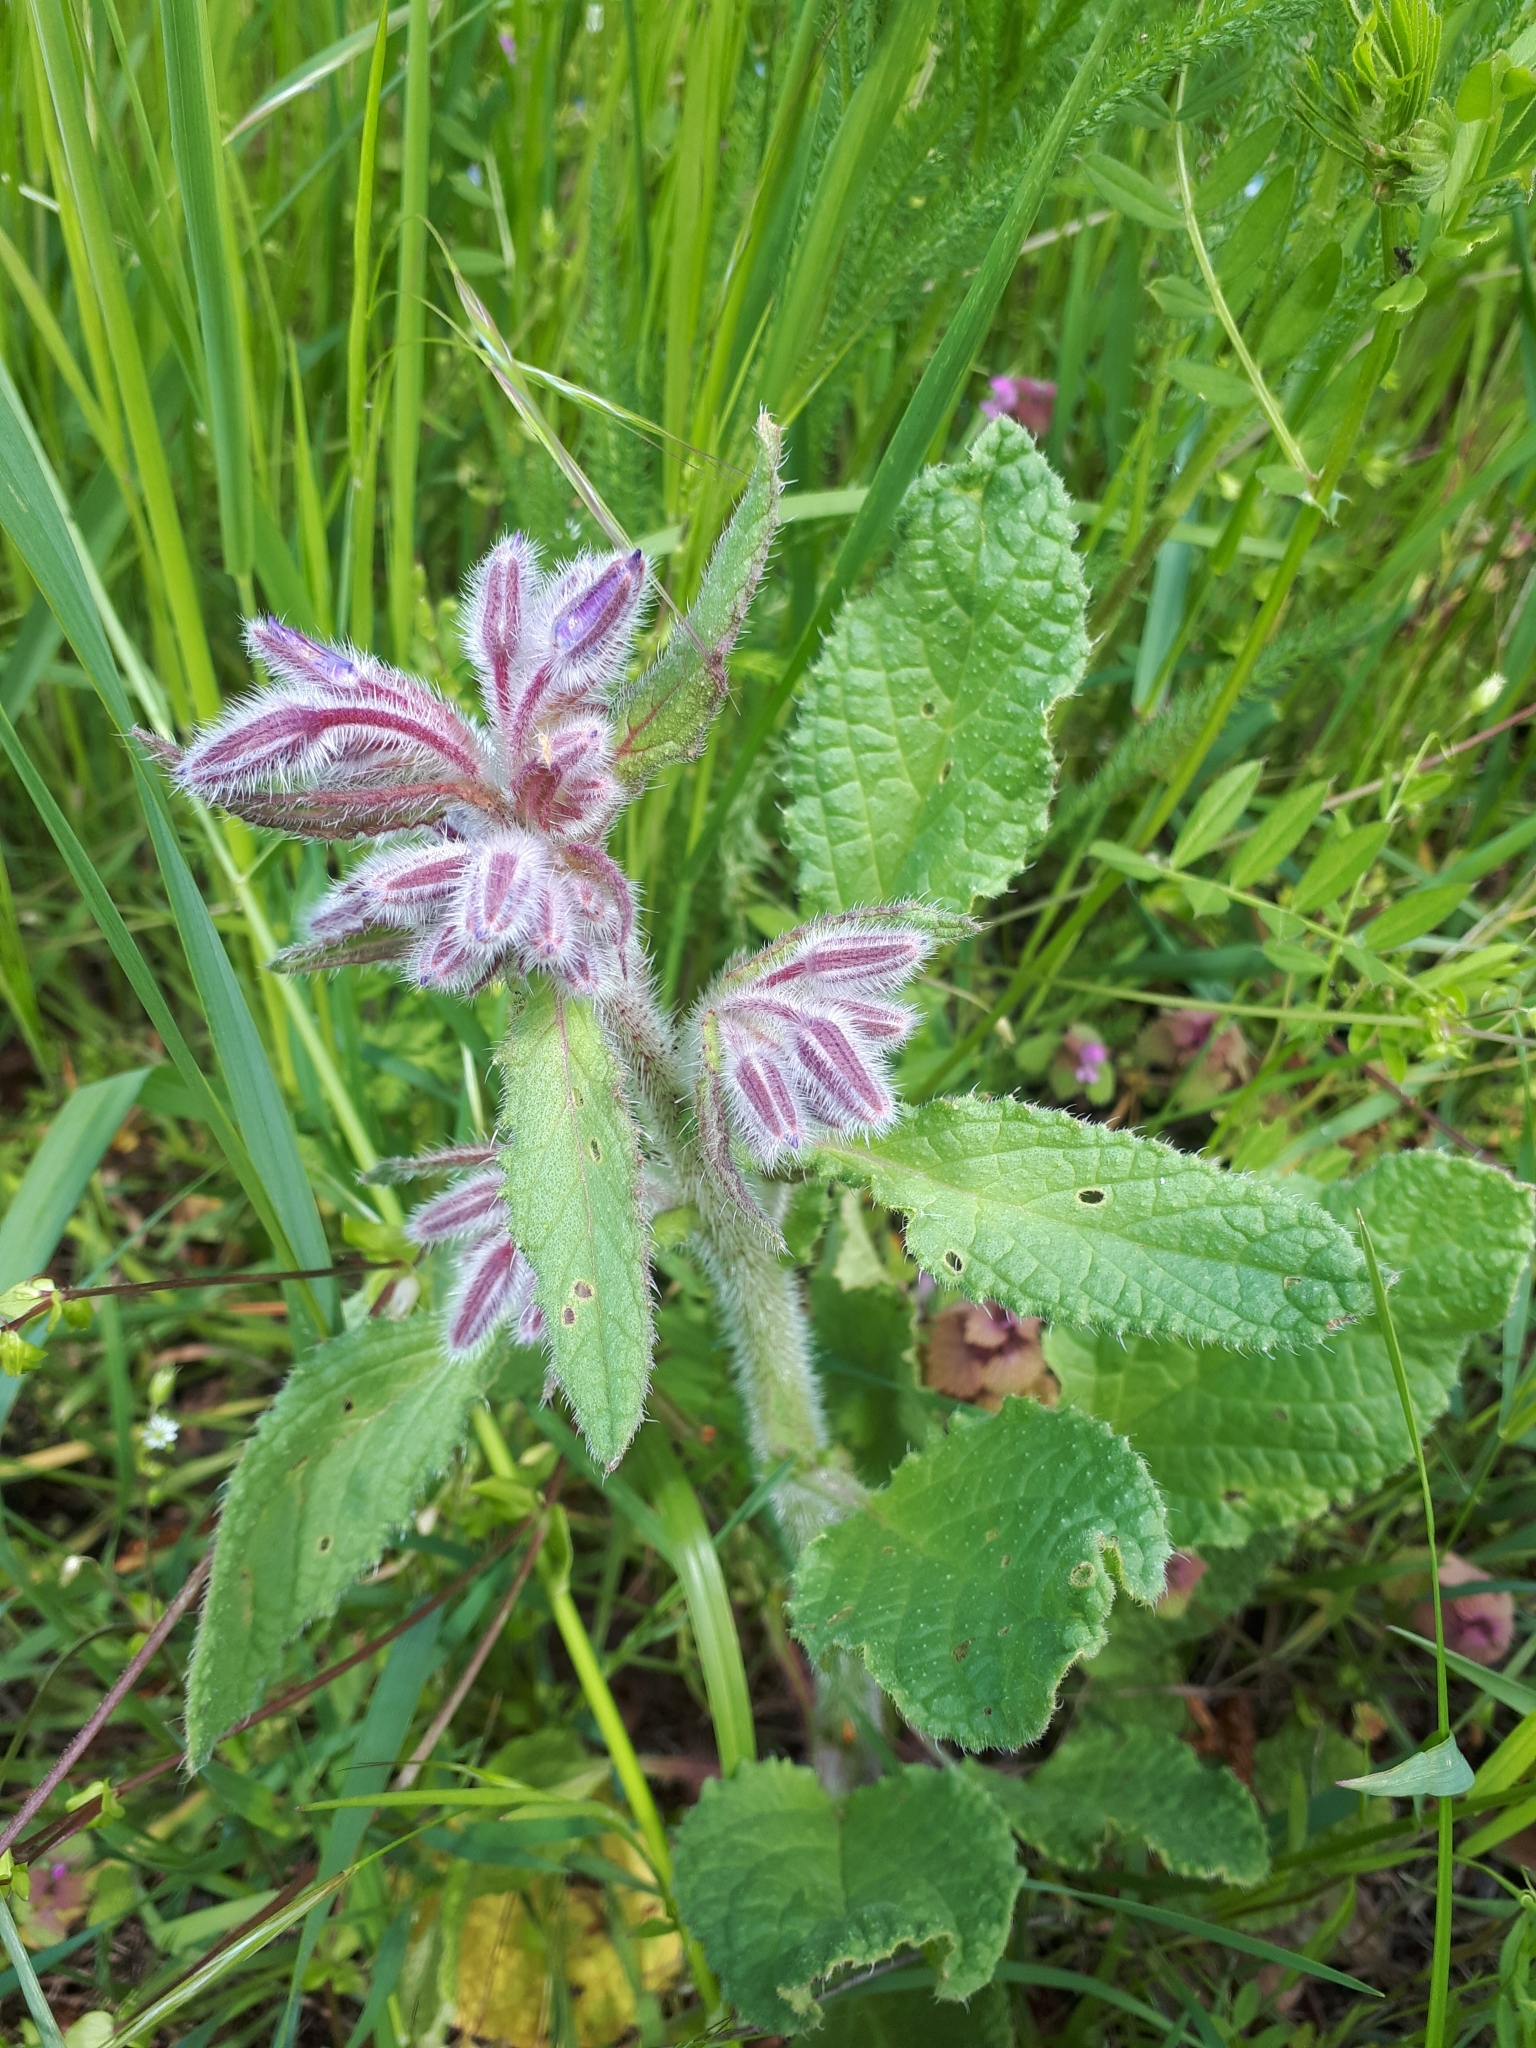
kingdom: Plantae
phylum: Tracheophyta
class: Magnoliopsida
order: Boraginales
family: Boraginaceae
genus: Borago
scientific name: Borago officinalis
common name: Borage
